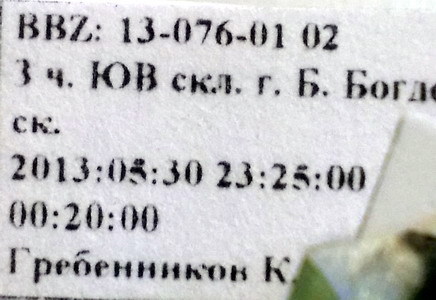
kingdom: Animalia
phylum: Arthropoda
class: Insecta
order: Hemiptera
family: Pentatomidae
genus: Brachynema
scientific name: Brachynema germarii
